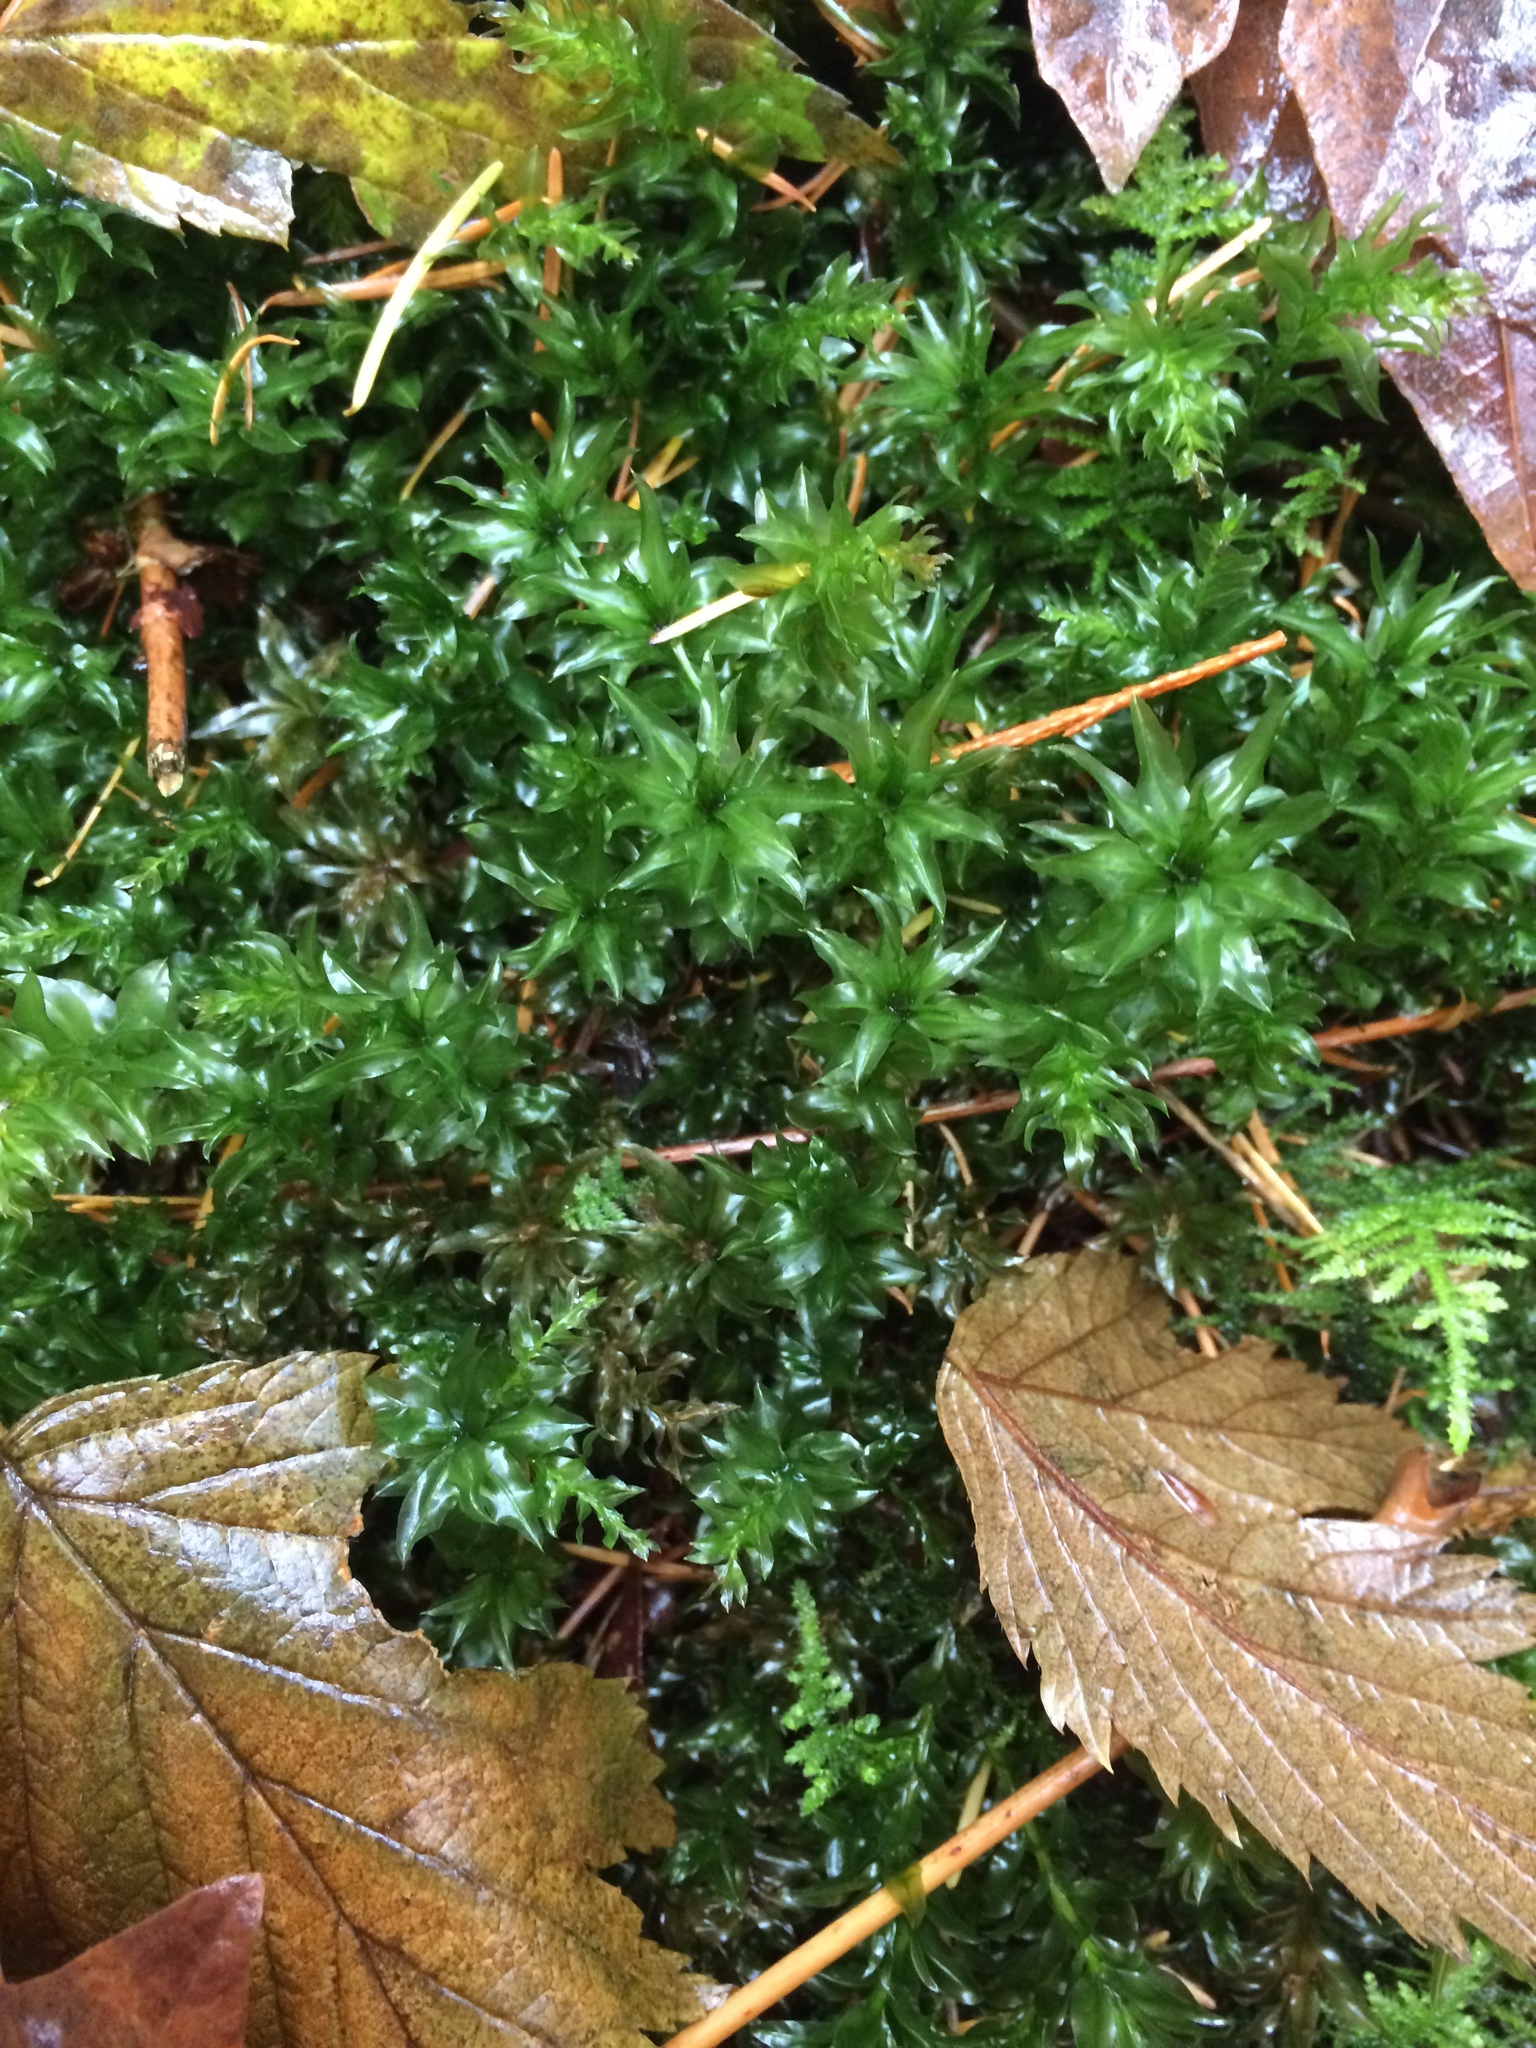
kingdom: Plantae
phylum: Bryophyta
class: Bryopsida
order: Bryales
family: Mniaceae
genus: Plagiomnium
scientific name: Plagiomnium insigne
